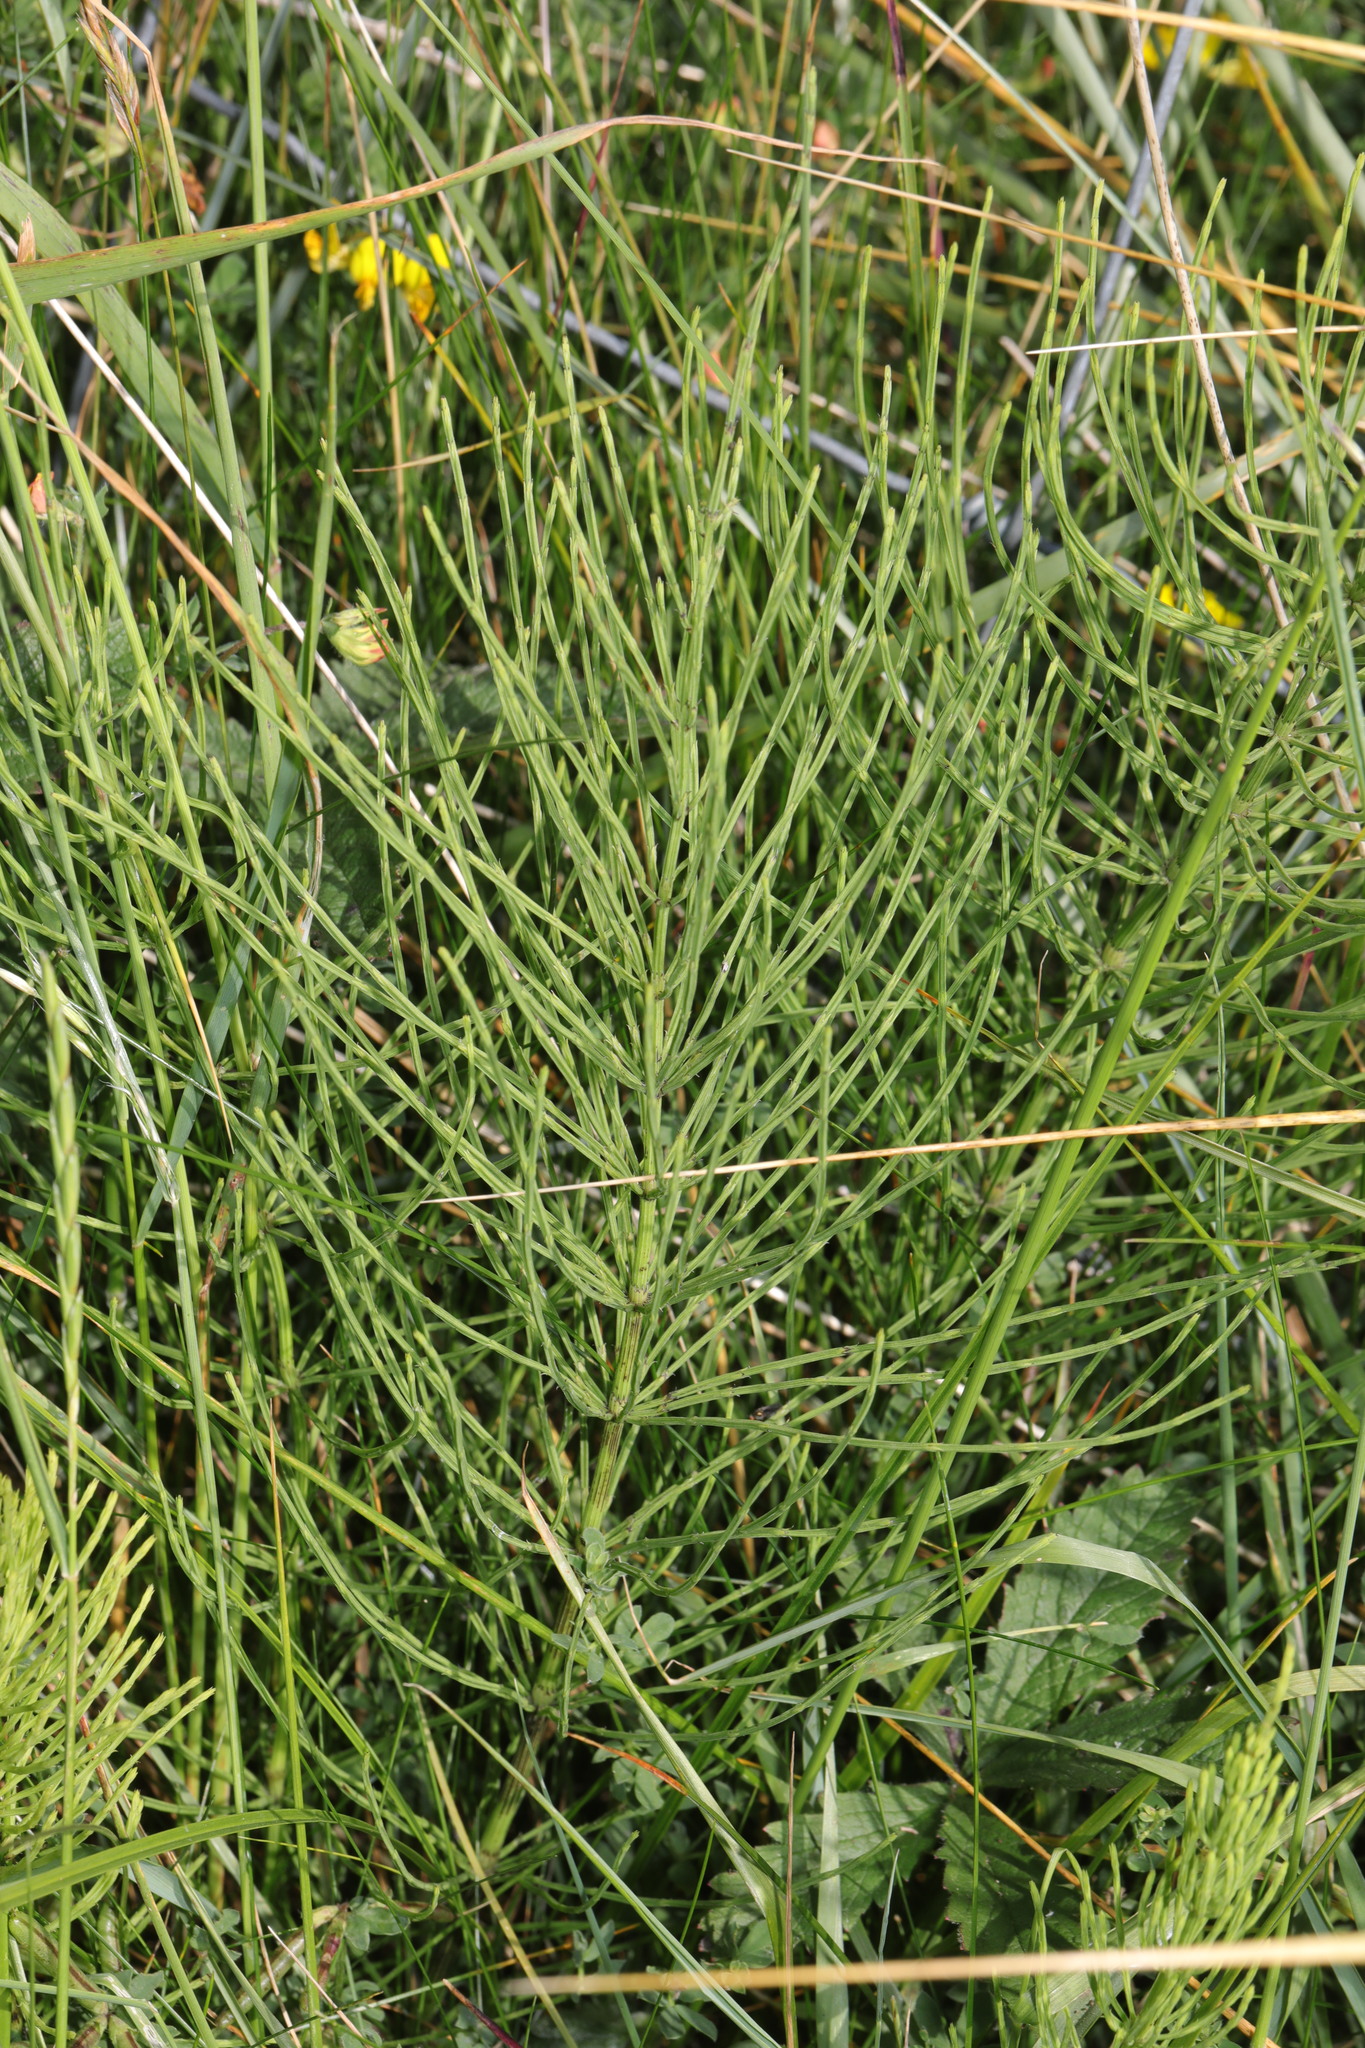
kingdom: Plantae
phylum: Tracheophyta
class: Polypodiopsida
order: Equisetales
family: Equisetaceae
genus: Equisetum
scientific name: Equisetum arvense
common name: Field horsetail
